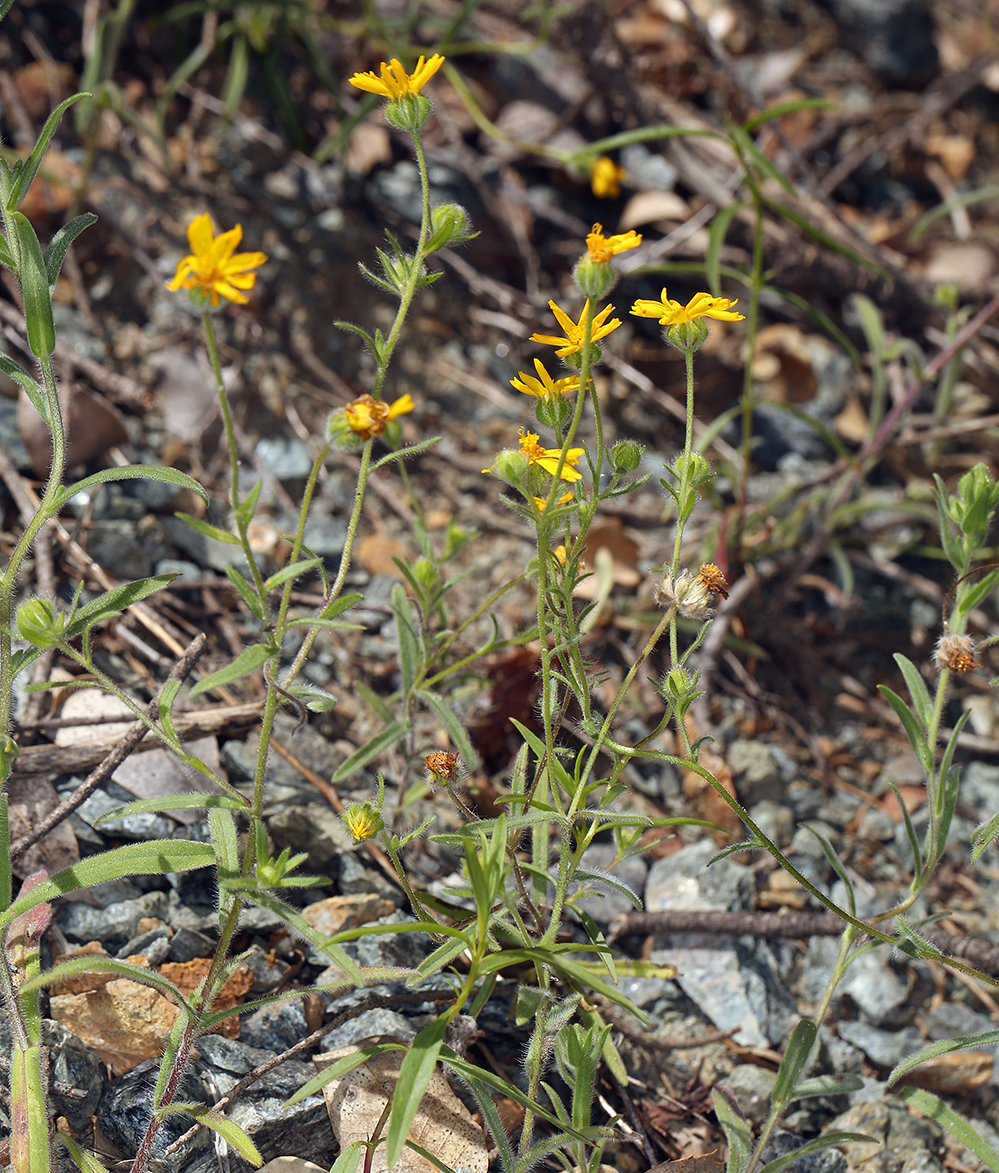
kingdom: Plantae
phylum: Tracheophyta
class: Magnoliopsida
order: Asterales
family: Asteraceae
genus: Harmonia
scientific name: Harmonia doris-nilesiae
